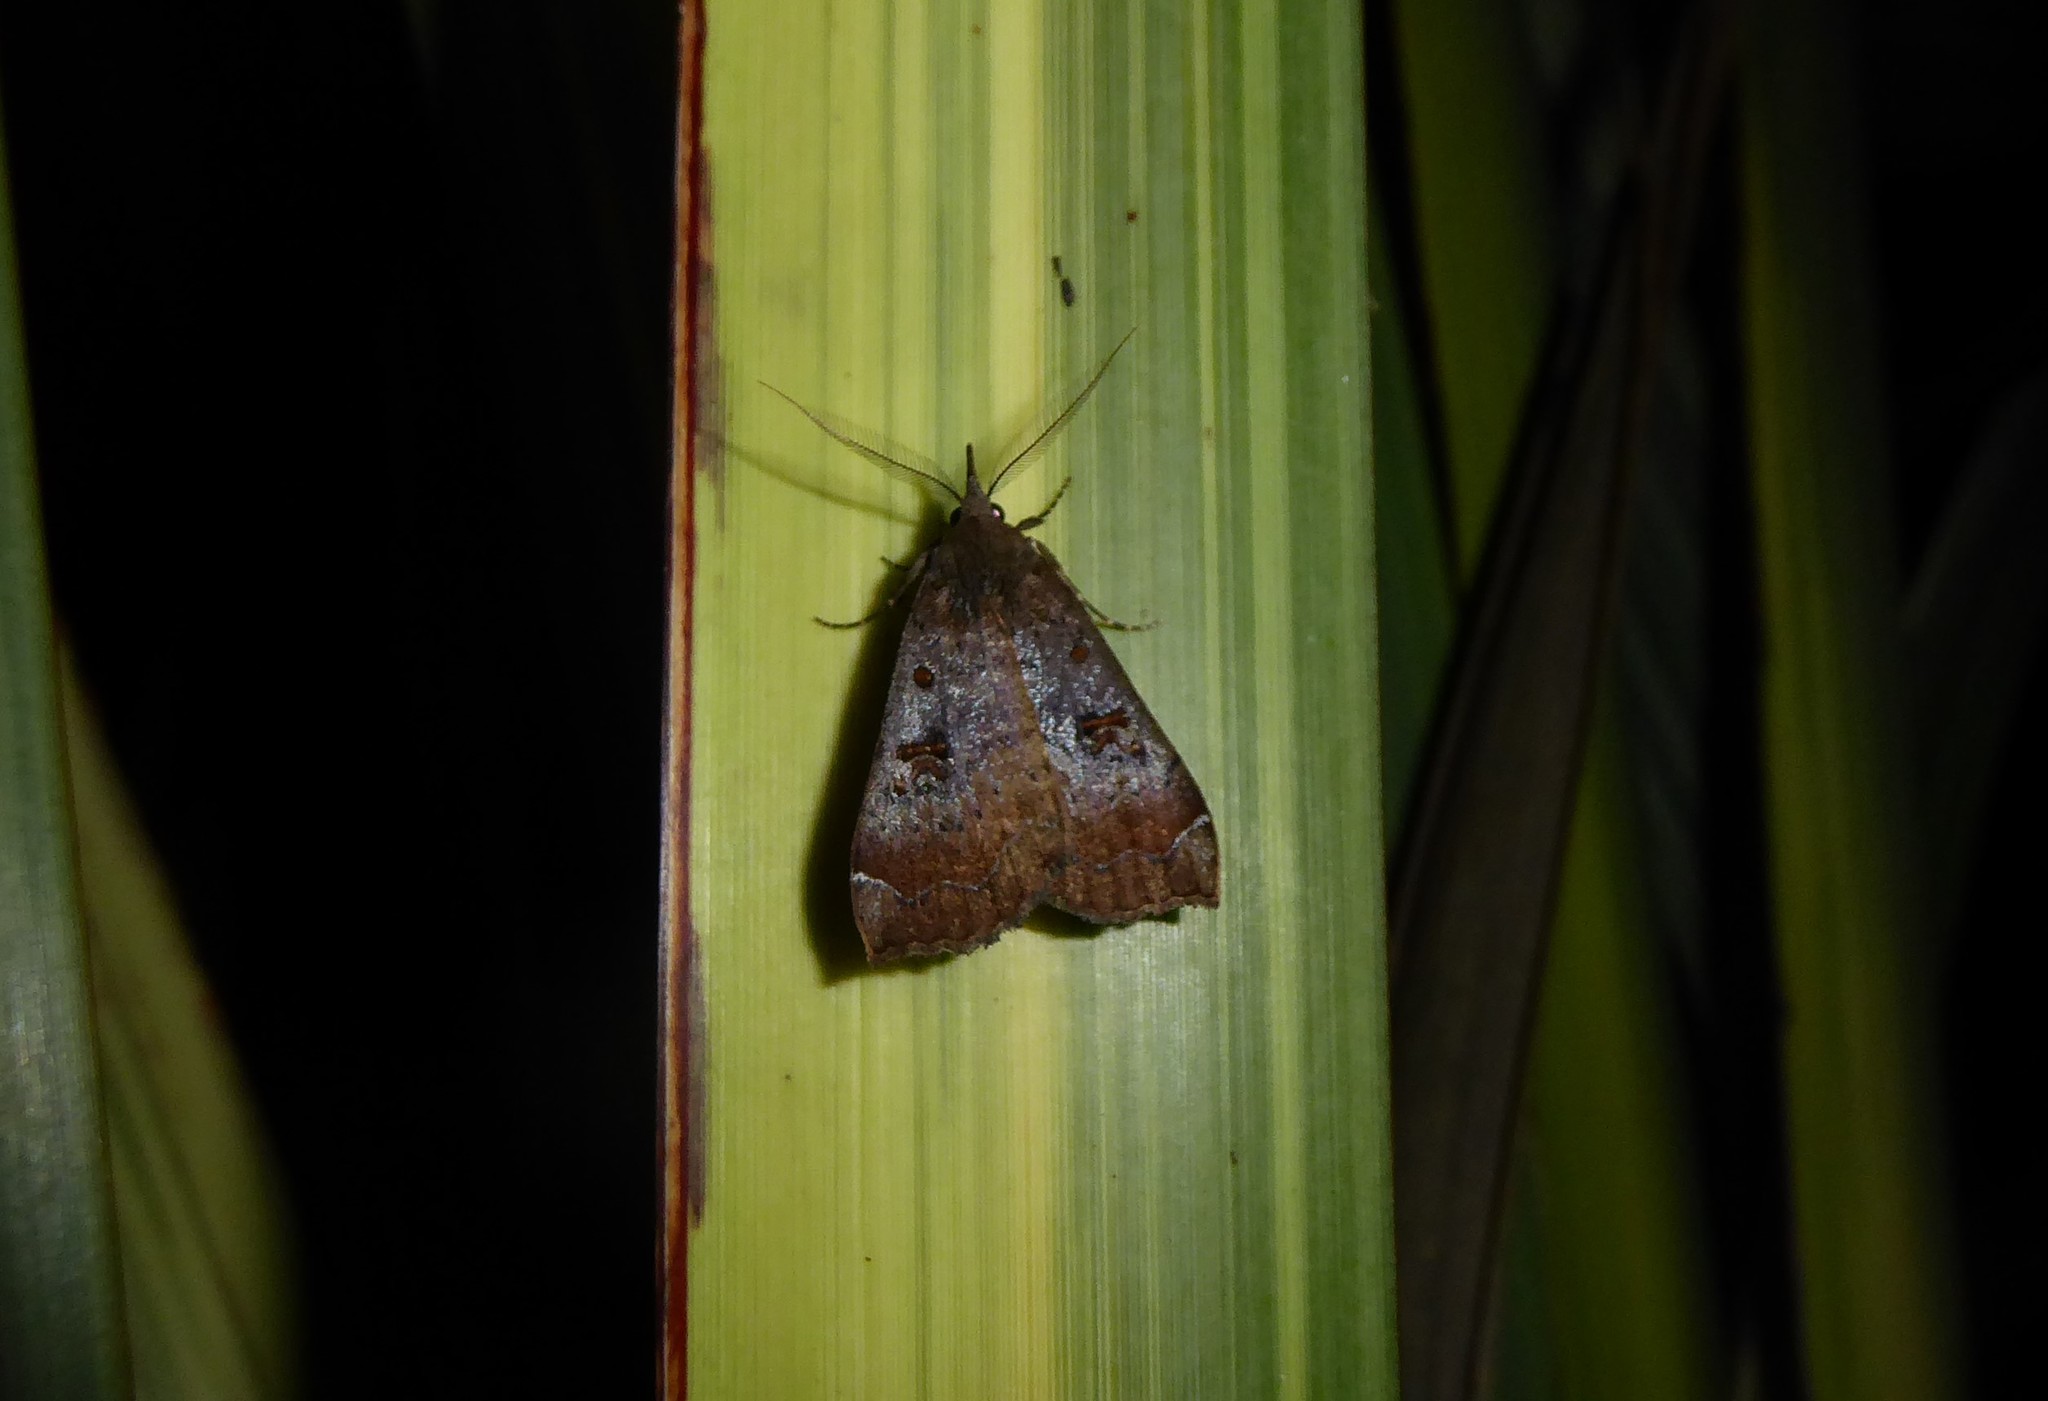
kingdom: Animalia
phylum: Arthropoda
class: Insecta
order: Lepidoptera
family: Erebidae
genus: Rhapsa
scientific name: Rhapsa scotosialis
